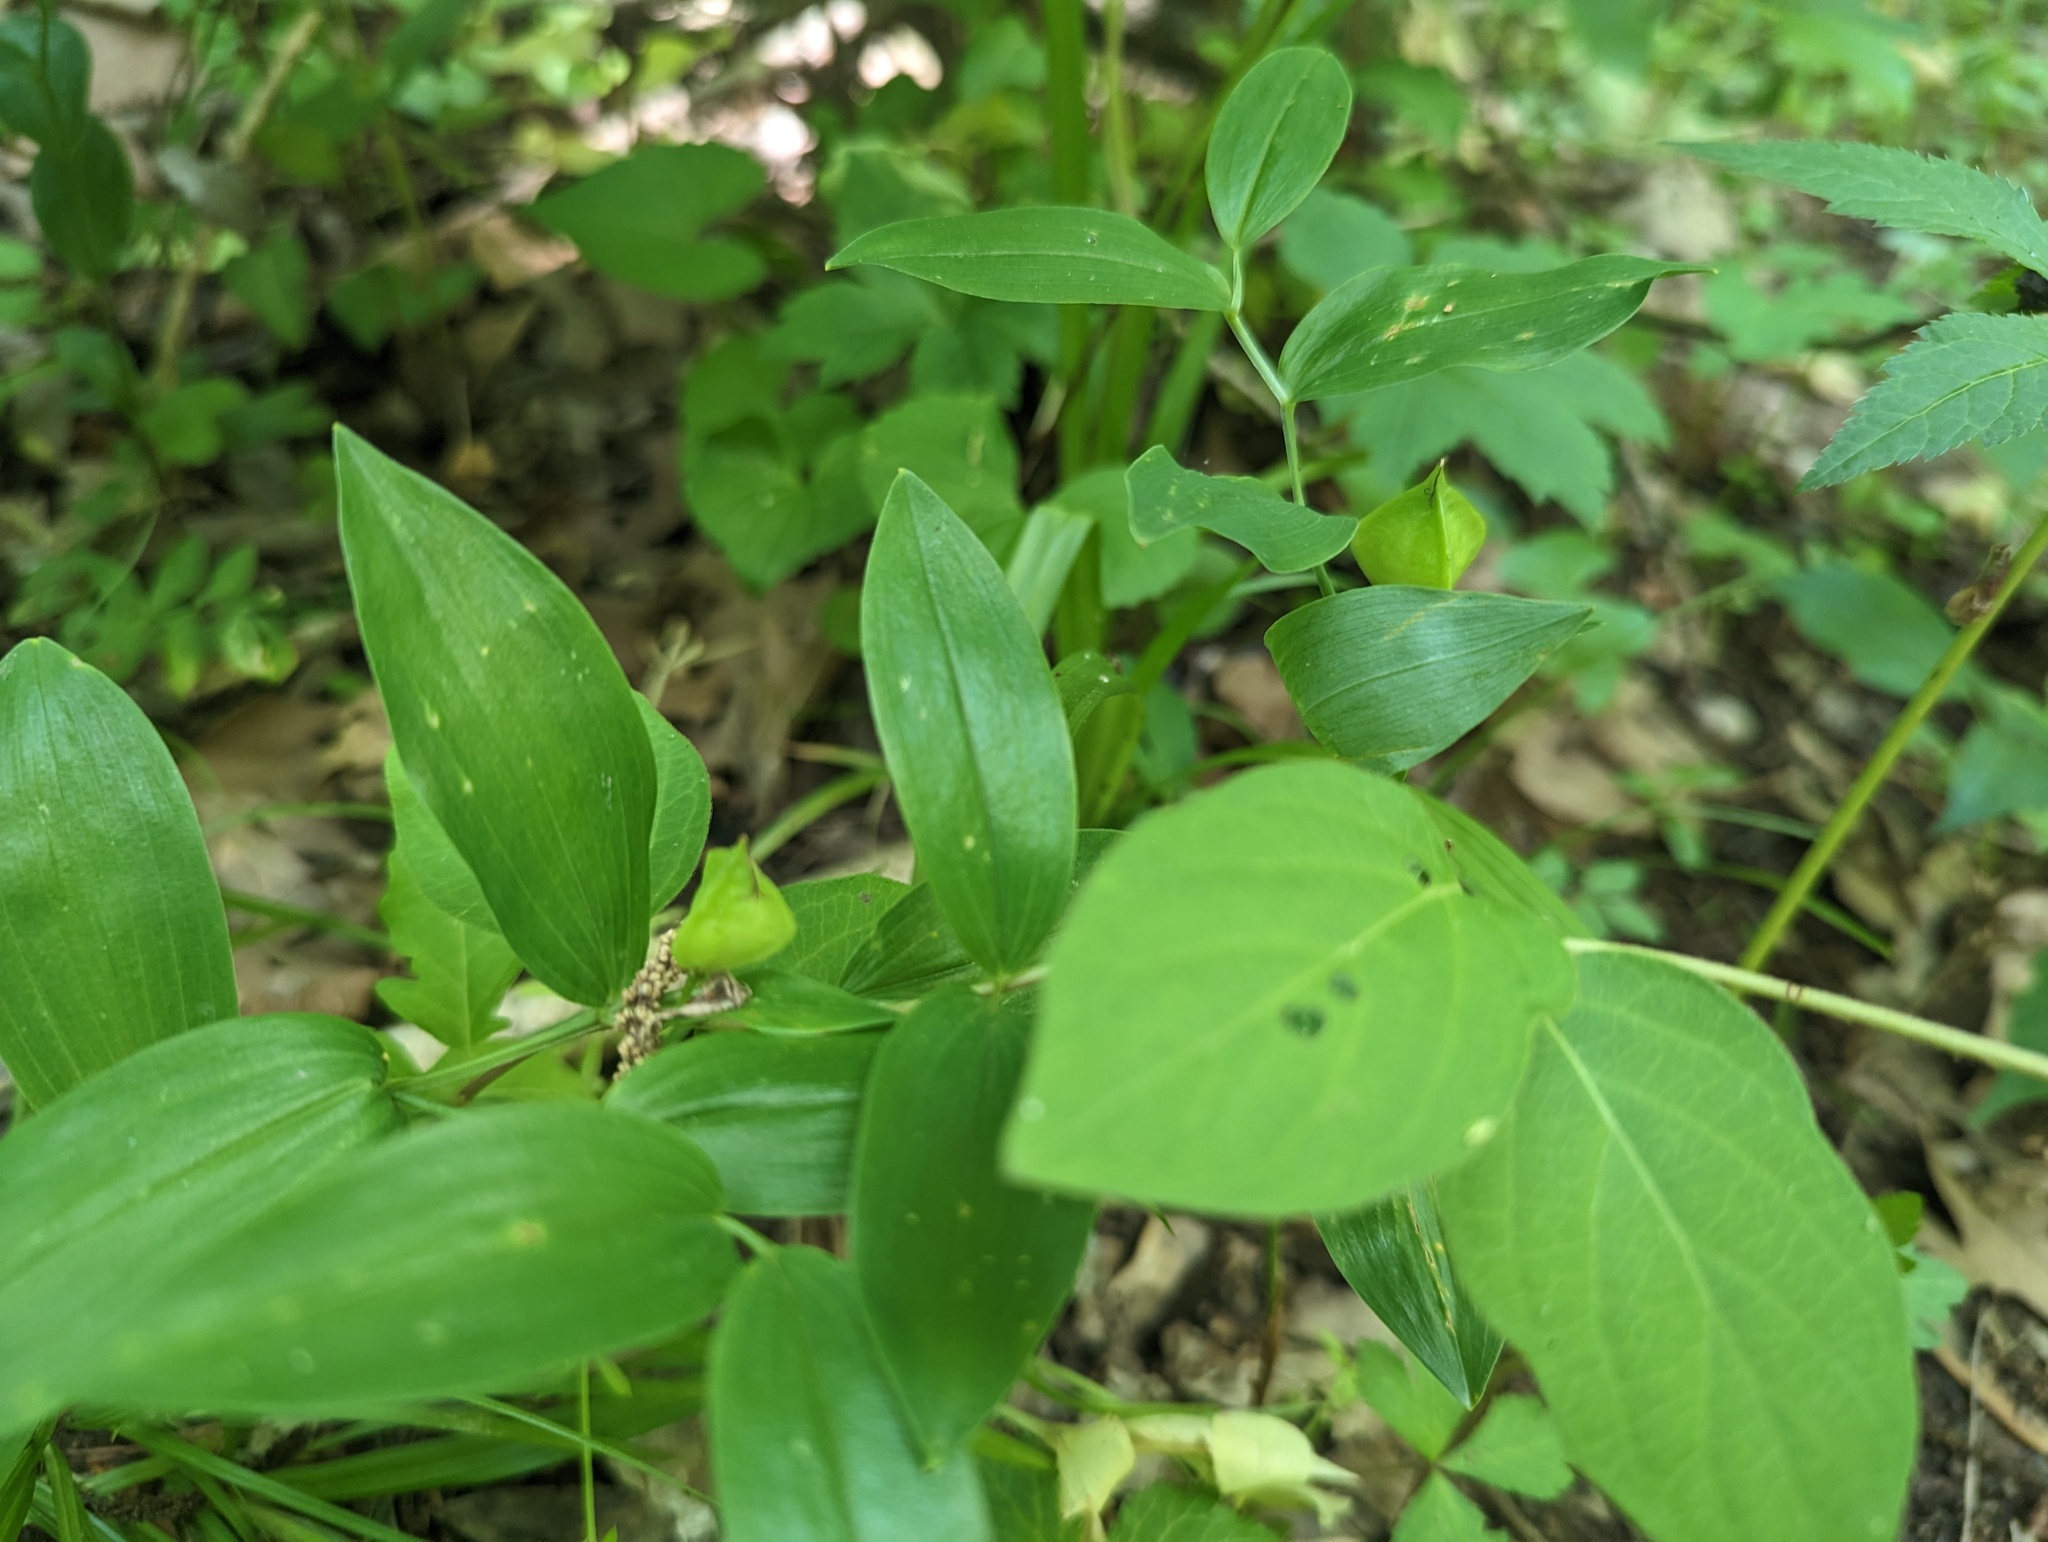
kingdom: Plantae
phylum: Tracheophyta
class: Liliopsida
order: Liliales
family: Colchicaceae
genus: Uvularia
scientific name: Uvularia floridana
